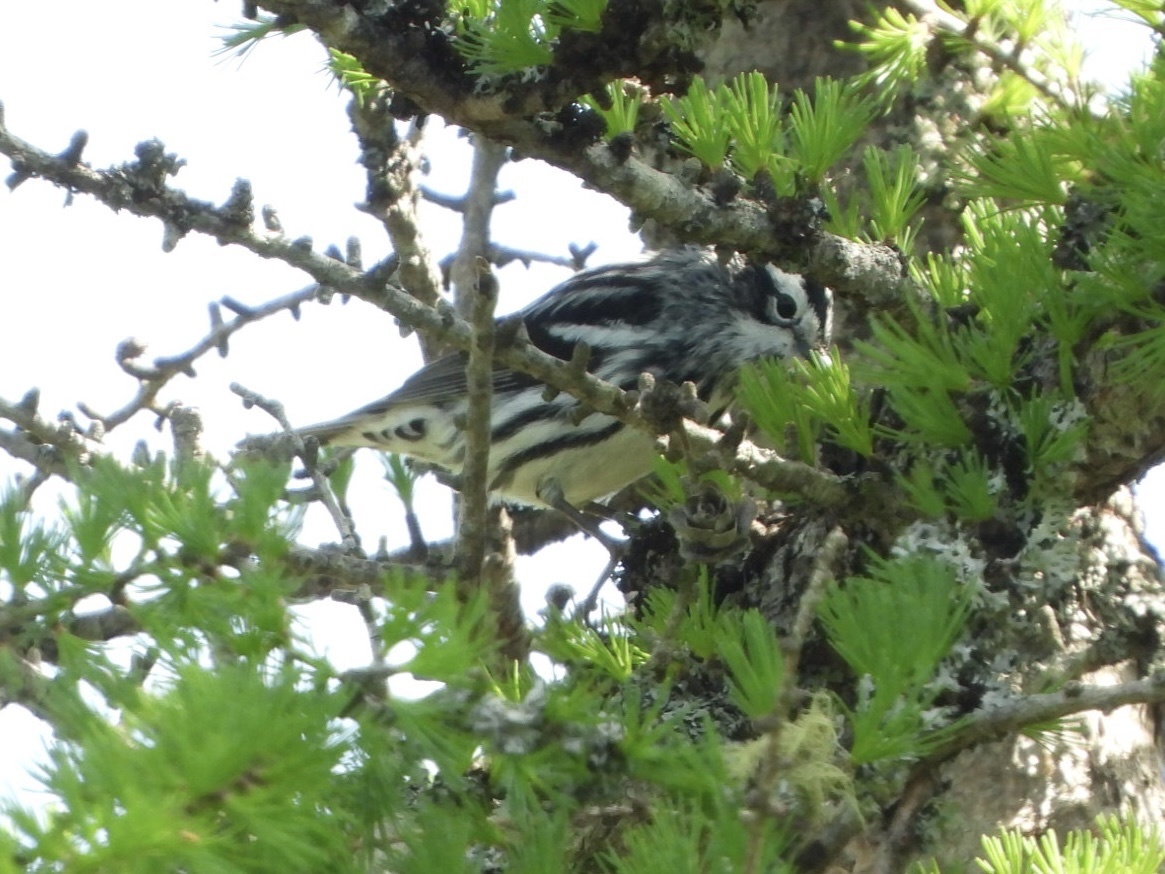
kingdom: Animalia
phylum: Chordata
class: Aves
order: Passeriformes
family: Parulidae
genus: Mniotilta
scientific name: Mniotilta varia
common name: Black-and-white warbler
